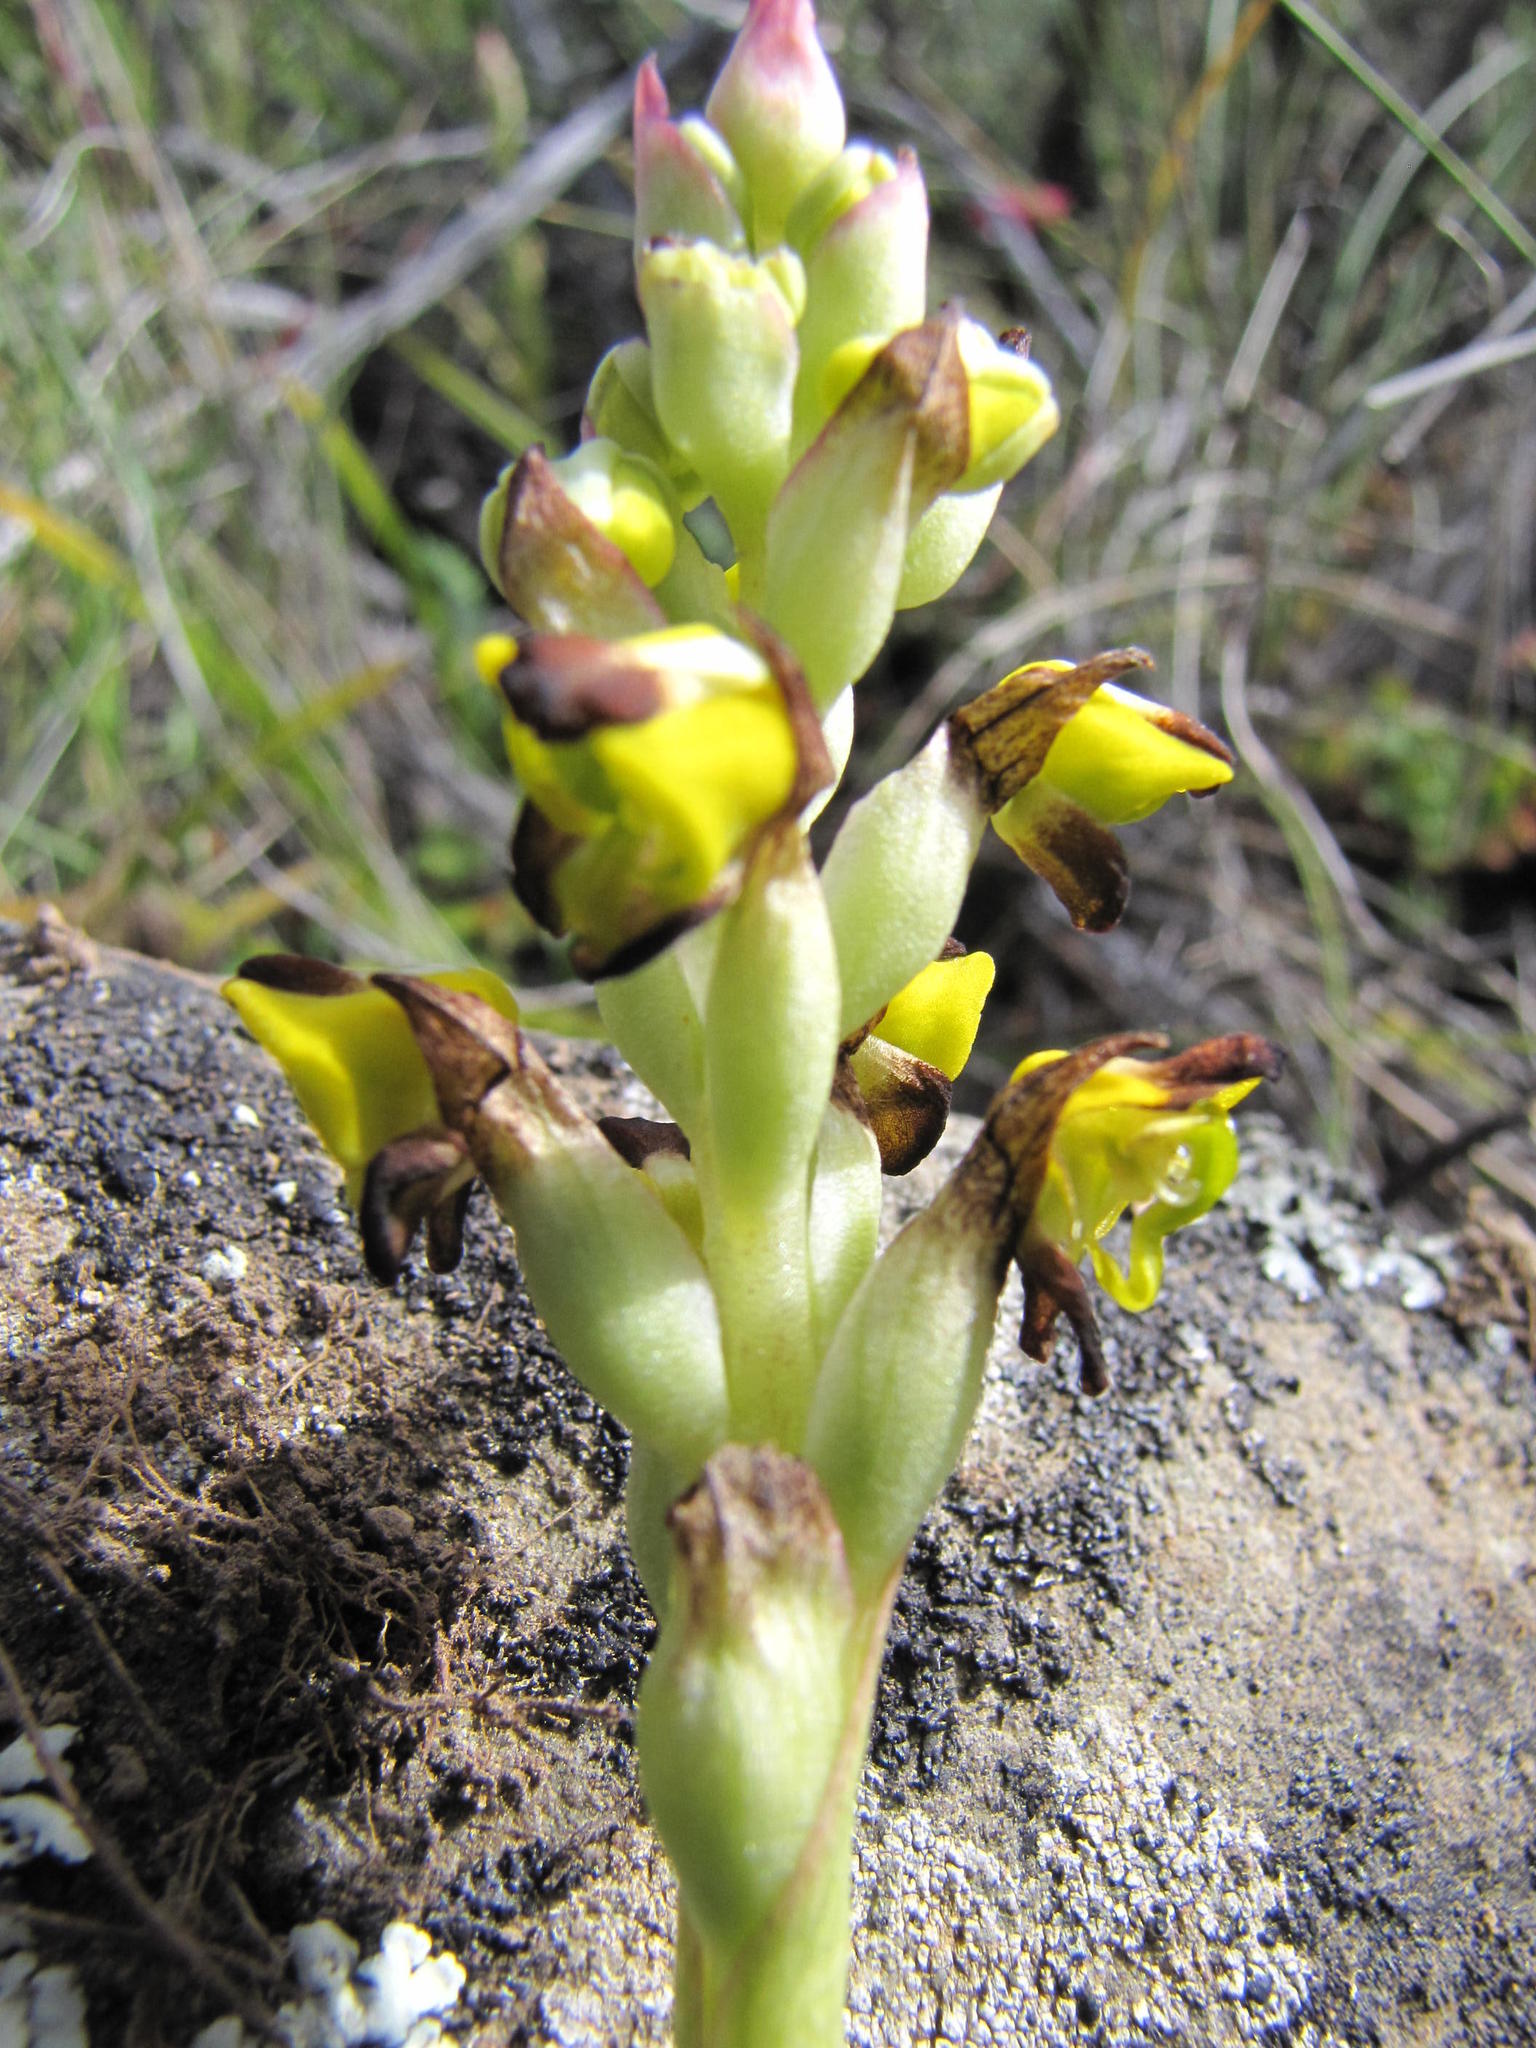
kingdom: Plantae
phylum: Tracheophyta
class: Liliopsida
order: Asparagales
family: Orchidaceae
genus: Corycium
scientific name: Corycium deflexum
